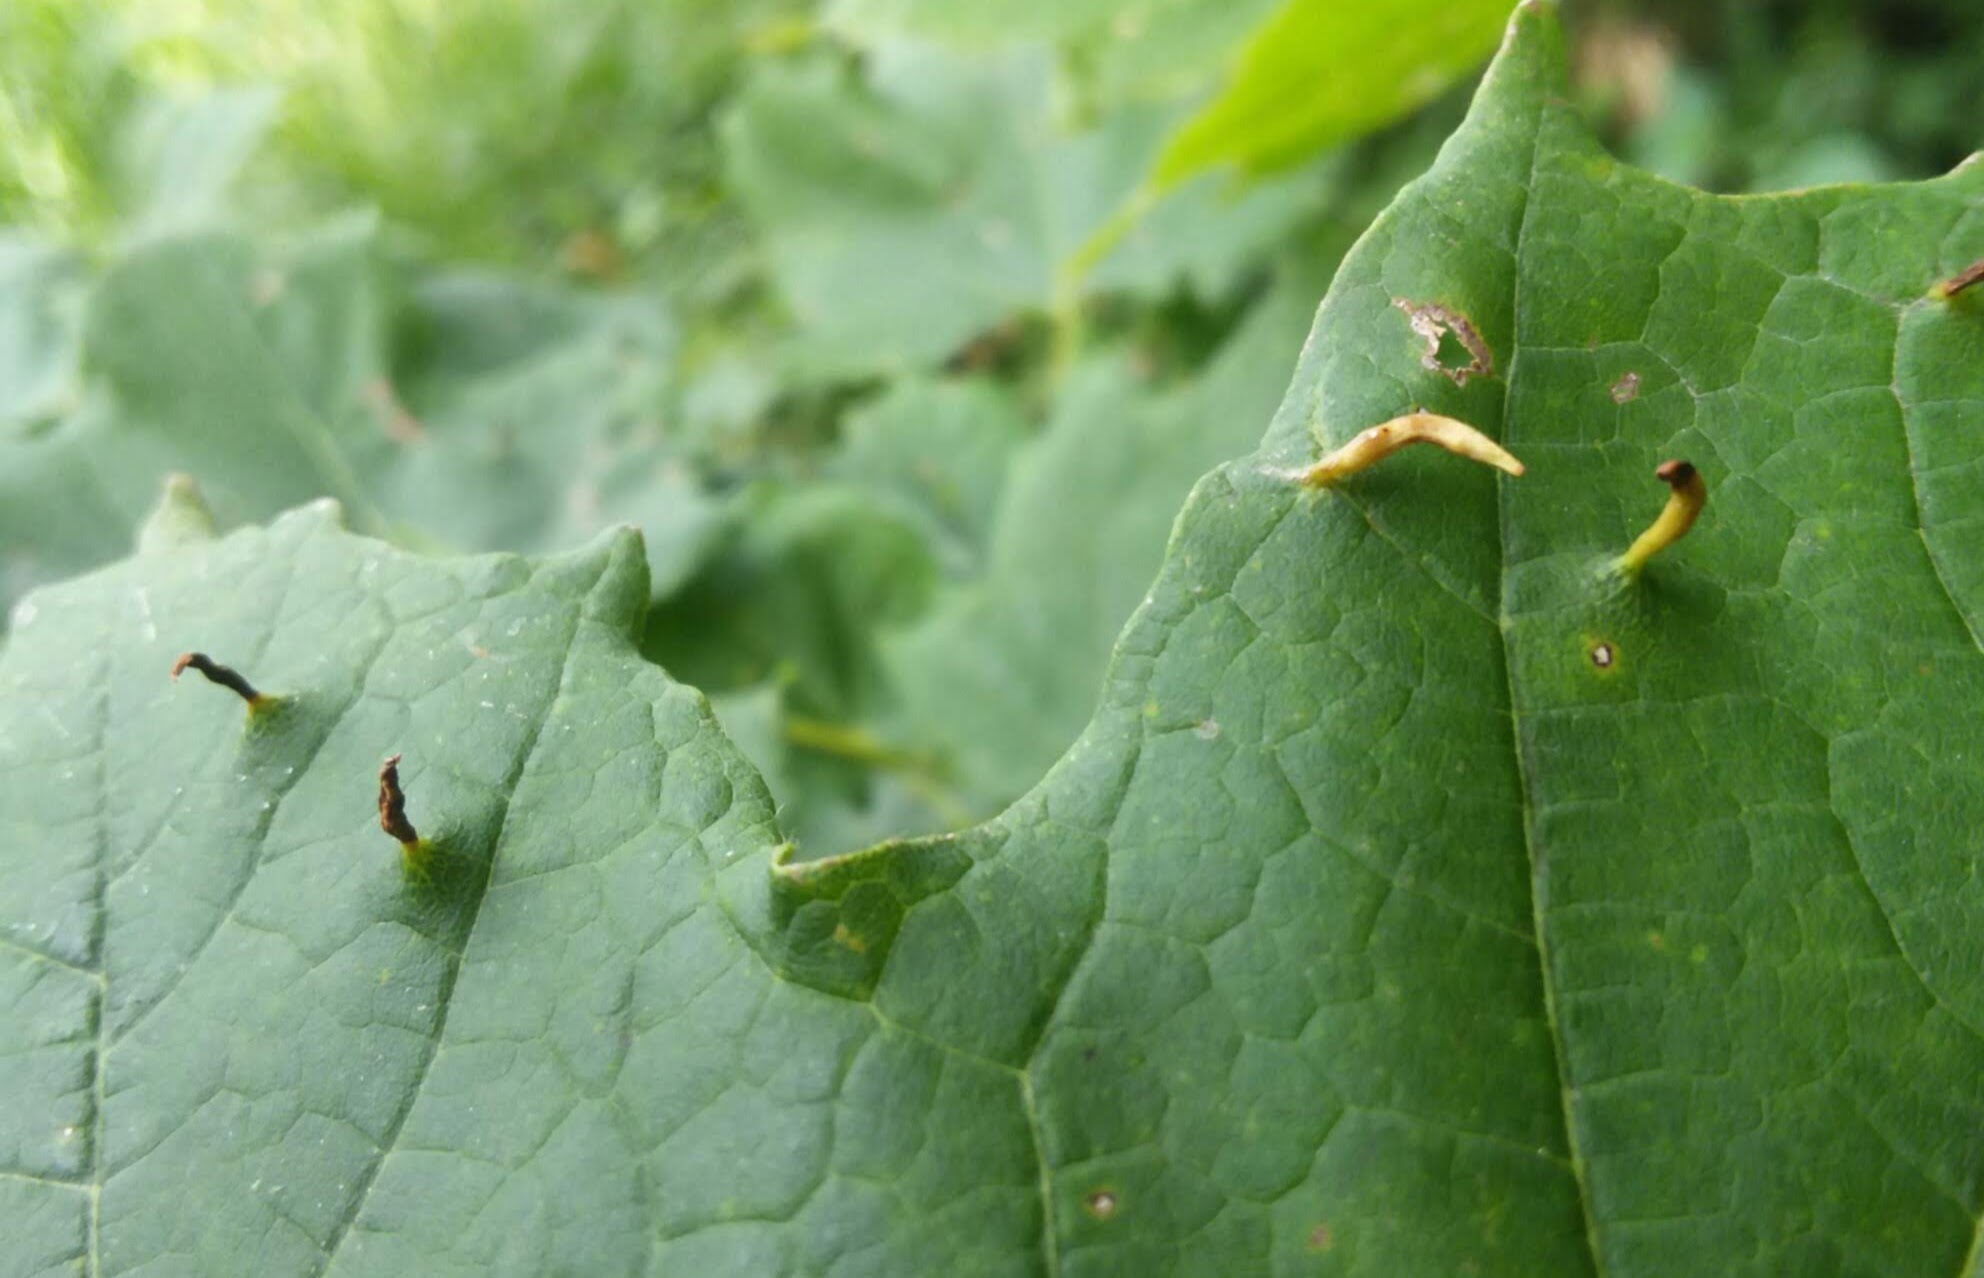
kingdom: Animalia
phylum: Arthropoda
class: Arachnida
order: Trombidiformes
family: Eriophyidae
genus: Vasates
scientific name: Vasates aceriscrumena
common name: Maple spindle gall mite
